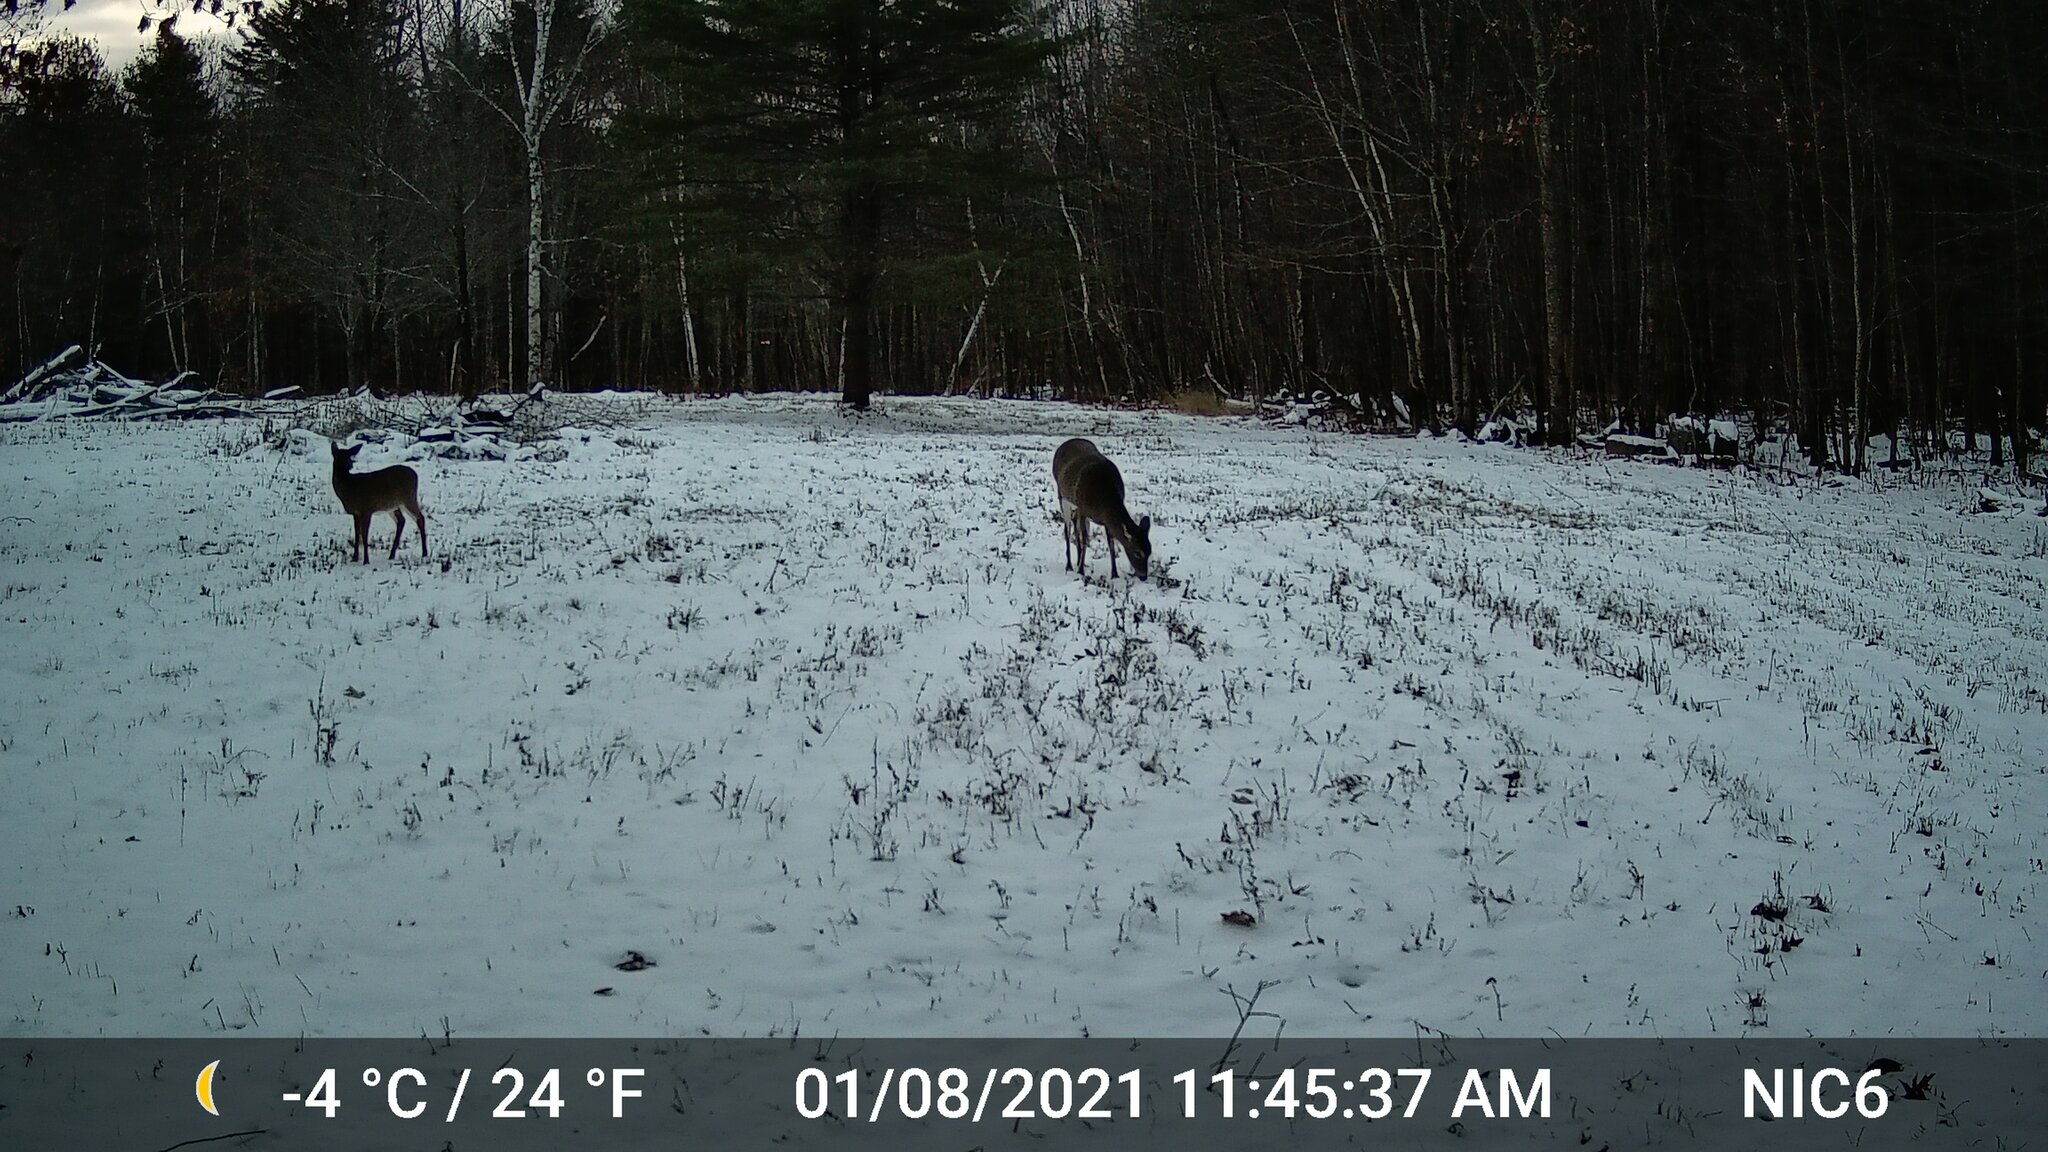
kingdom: Animalia
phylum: Chordata
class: Mammalia
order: Artiodactyla
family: Cervidae
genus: Odocoileus
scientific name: Odocoileus virginianus
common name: White-tailed deer
